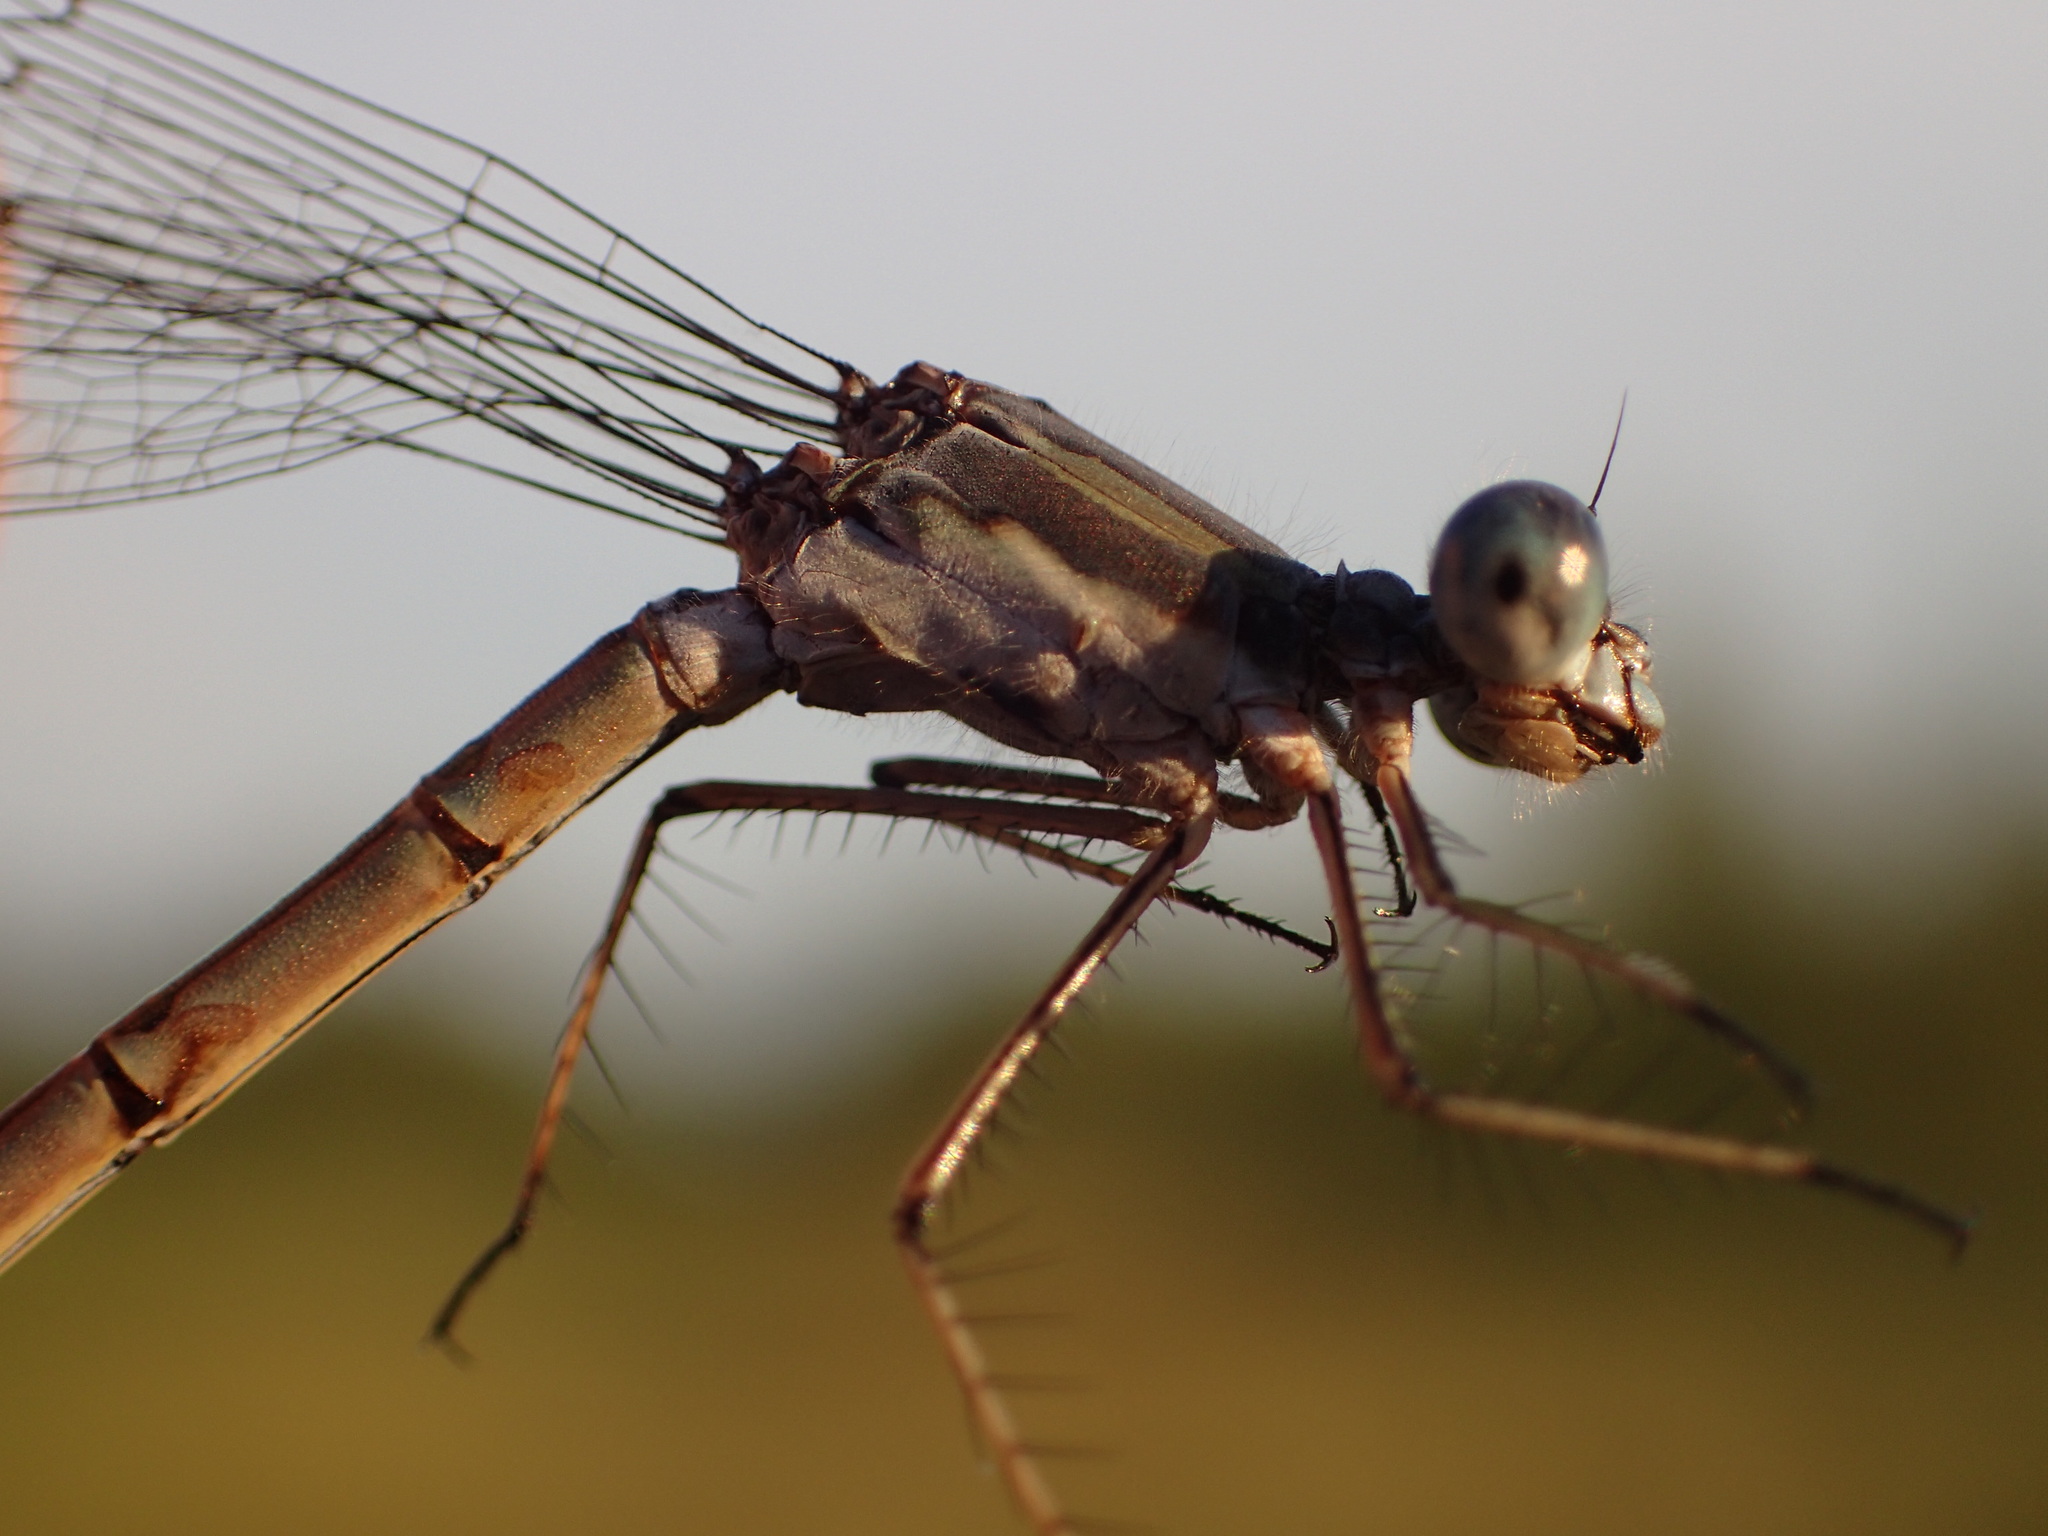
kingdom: Animalia
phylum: Arthropoda
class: Insecta
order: Odonata
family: Lestidae
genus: Lestes
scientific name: Lestes forcipatus
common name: Sweetflag spreadwing
